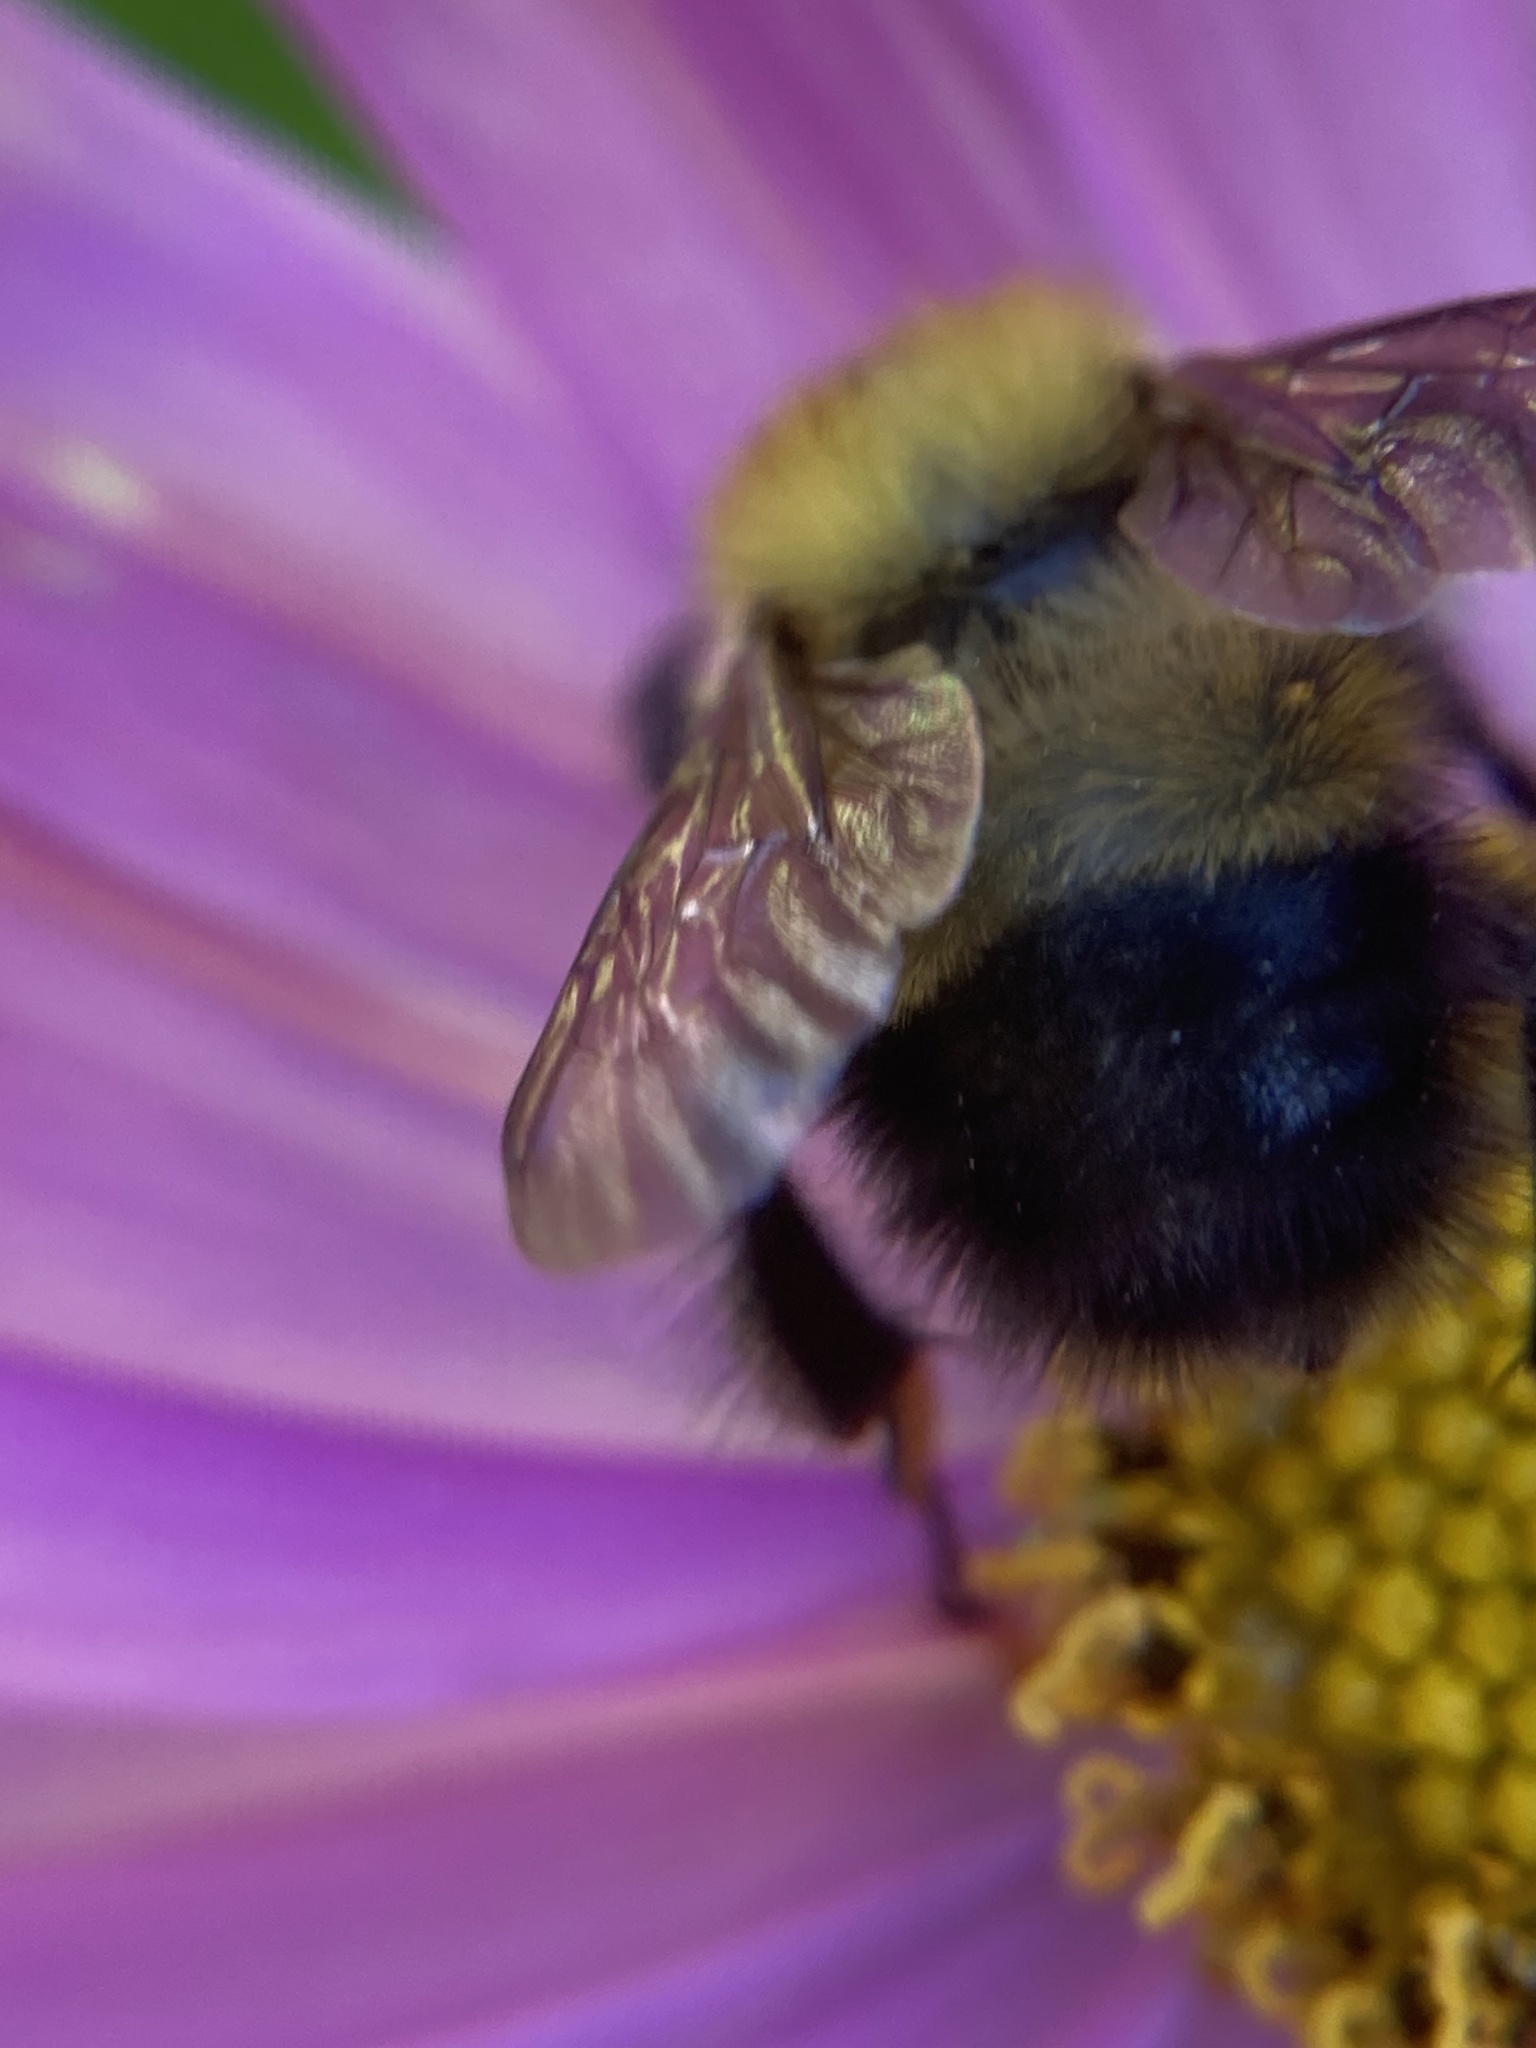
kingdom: Animalia
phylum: Arthropoda
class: Insecta
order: Hymenoptera
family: Apidae
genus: Bombus
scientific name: Bombus perplexus
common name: Confusing bumble bee
